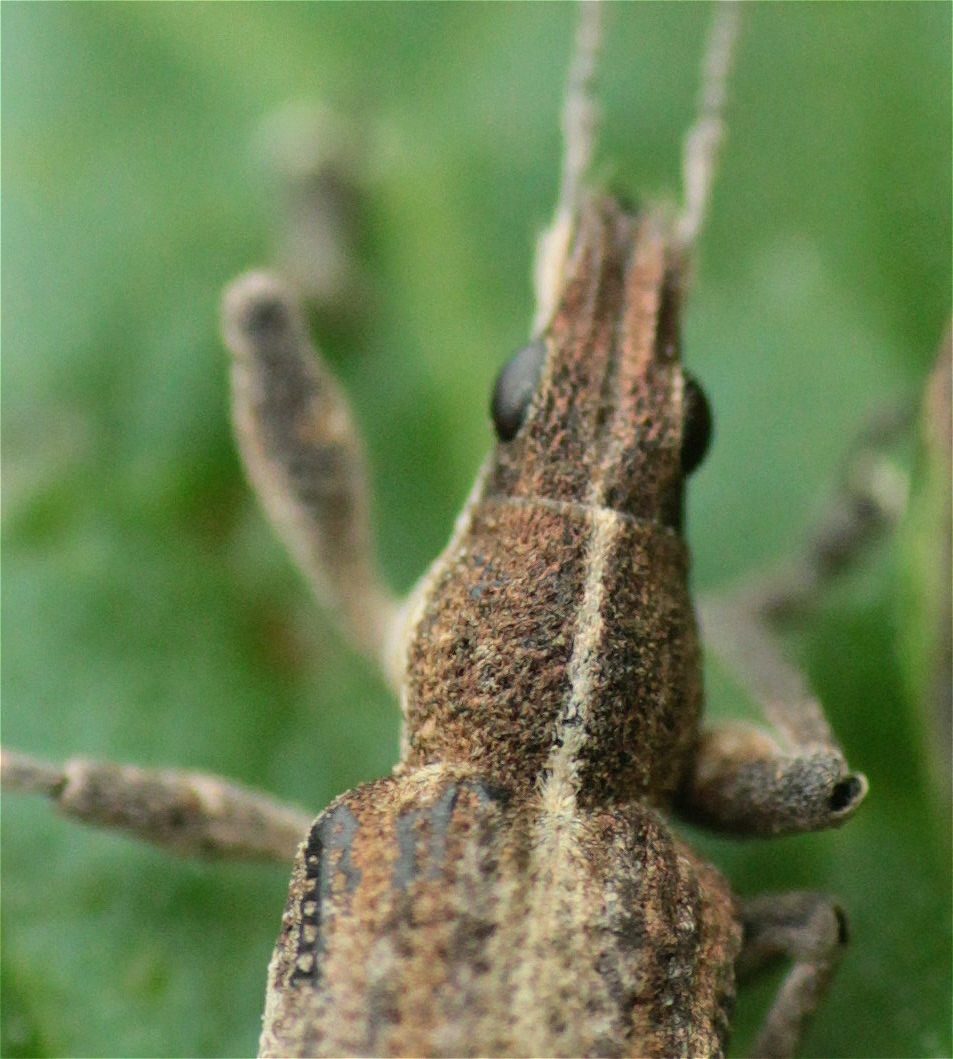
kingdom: Animalia
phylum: Arthropoda
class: Insecta
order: Coleoptera
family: Curculionidae
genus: Charagmus
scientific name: Charagmus gressorius
